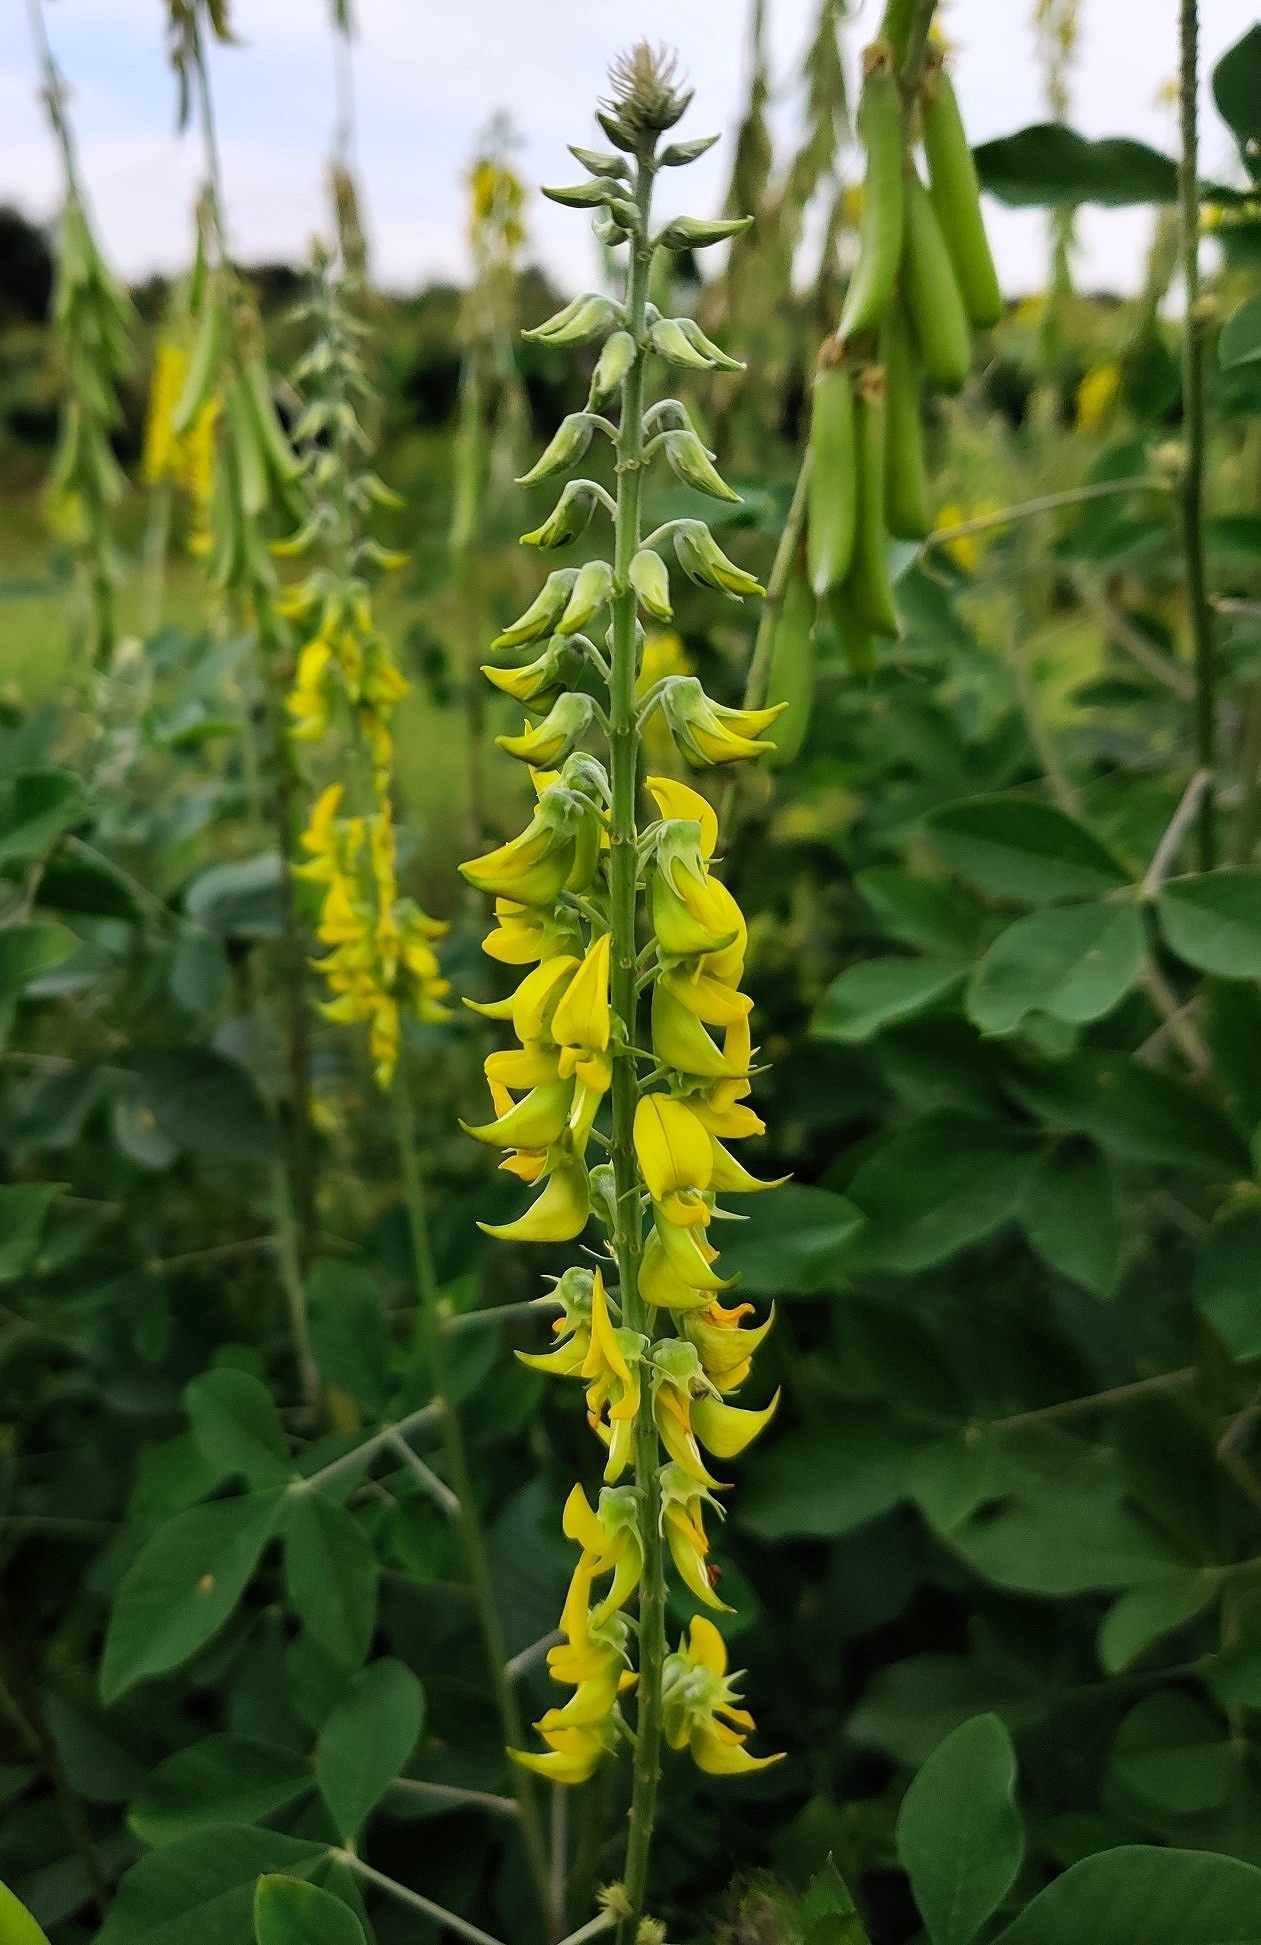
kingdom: Plantae
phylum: Tracheophyta
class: Magnoliopsida
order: Fabales
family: Fabaceae
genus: Crotalaria
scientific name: Crotalaria pallida
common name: Smooth rattlebox
